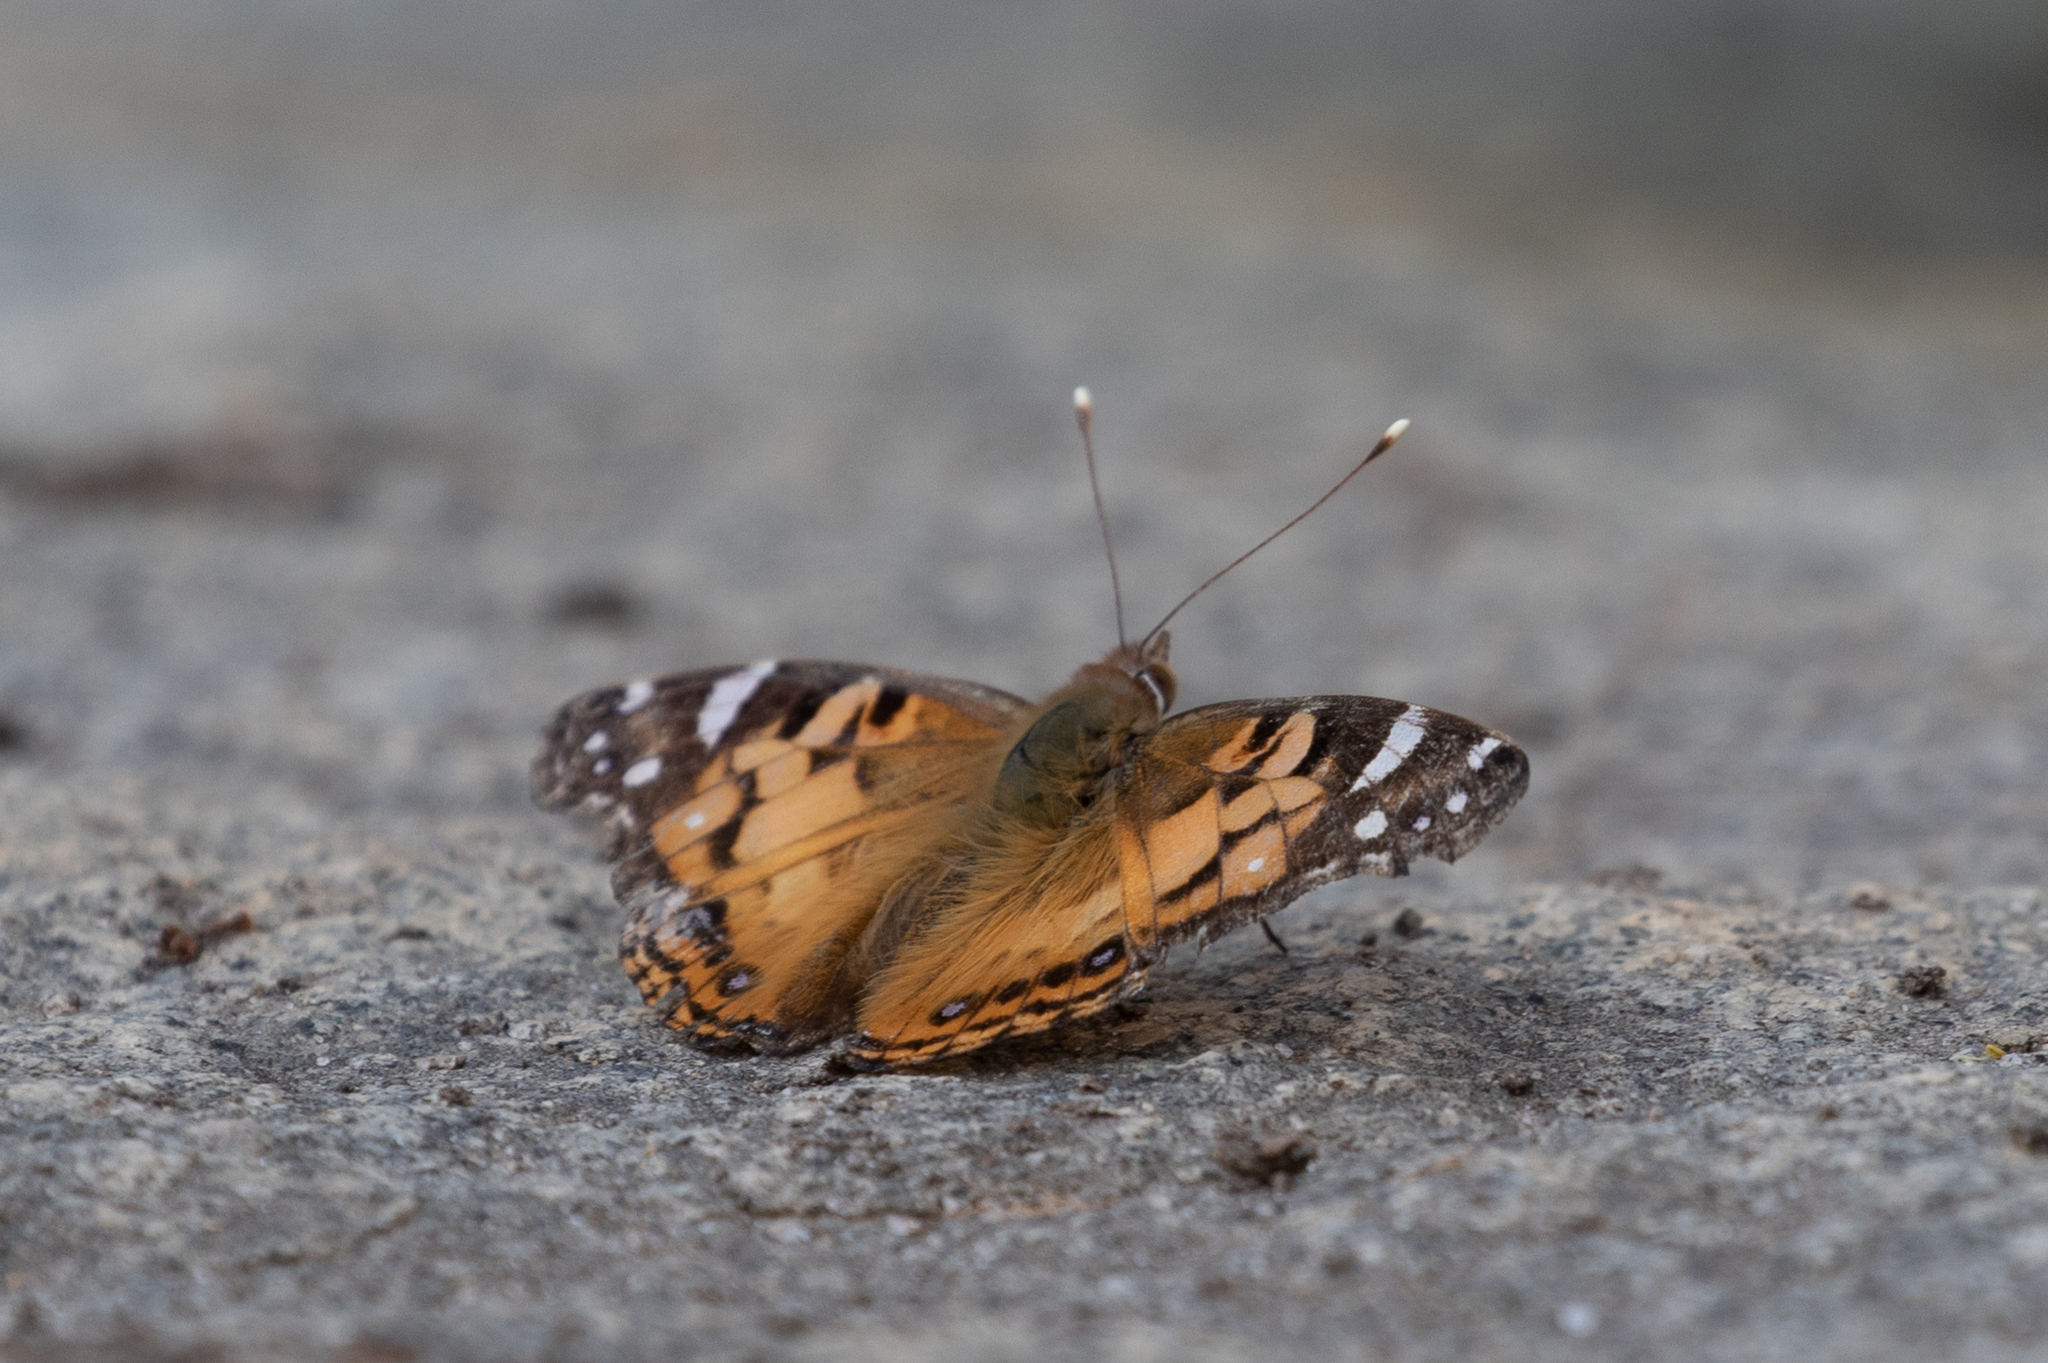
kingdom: Animalia
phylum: Arthropoda
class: Insecta
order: Lepidoptera
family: Nymphalidae
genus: Vanessa
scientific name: Vanessa virginiensis
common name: American lady
